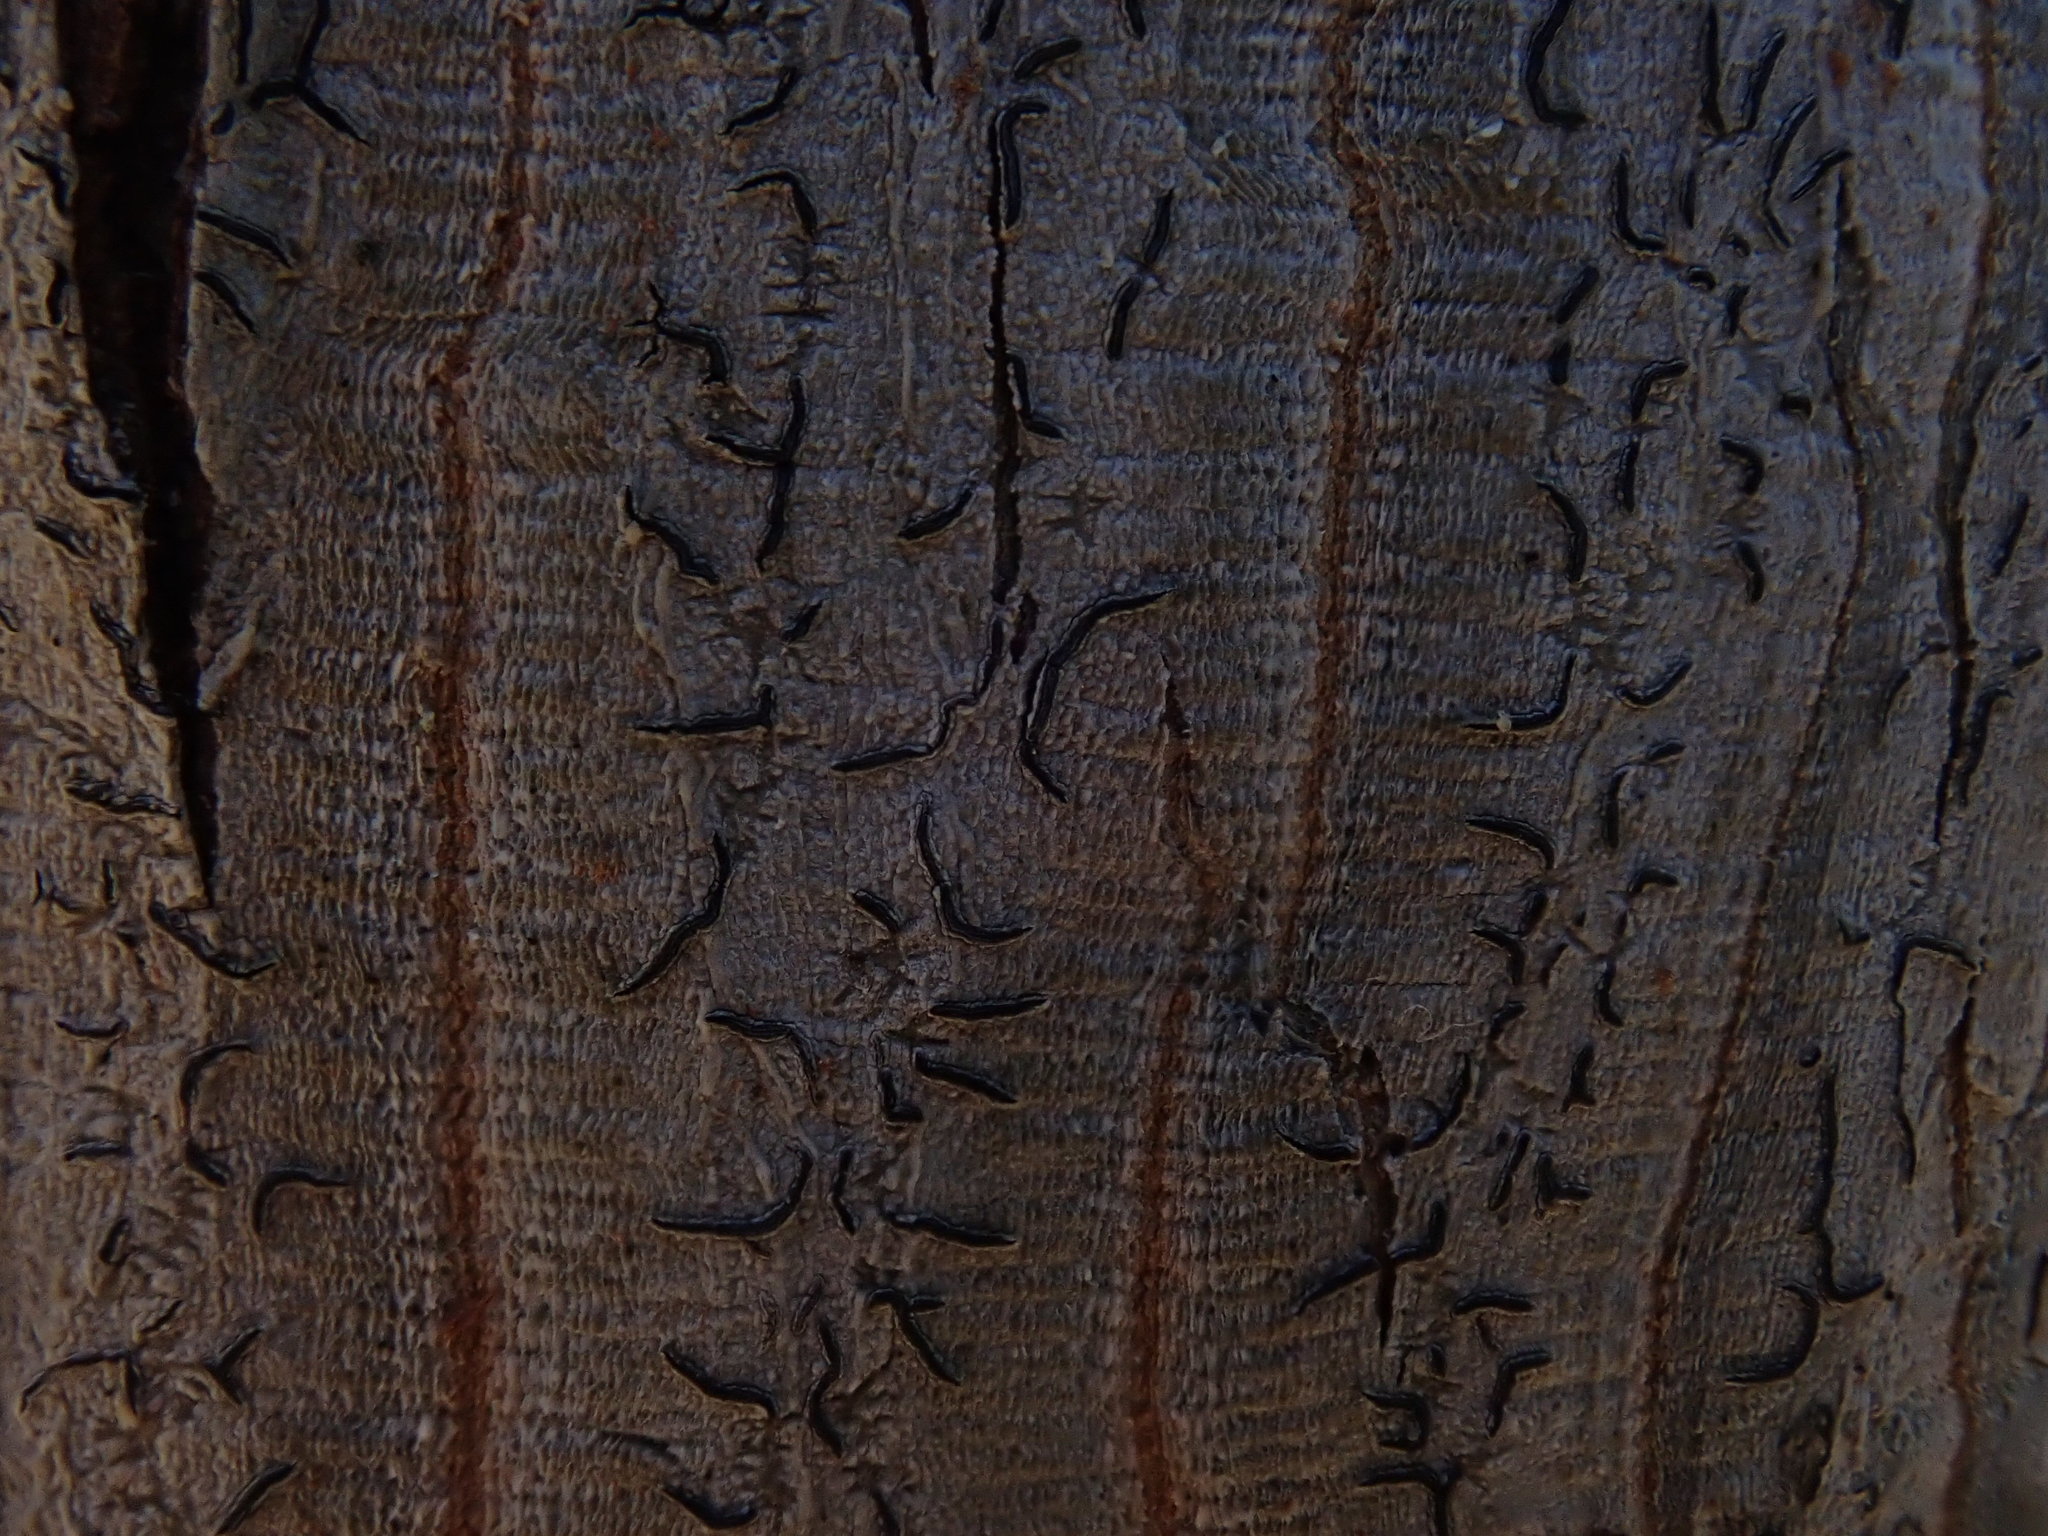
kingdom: Fungi
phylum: Ascomycota
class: Lecanoromycetes
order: Ostropales
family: Graphidaceae
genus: Graphis
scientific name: Graphis scripta
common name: Script lichen
